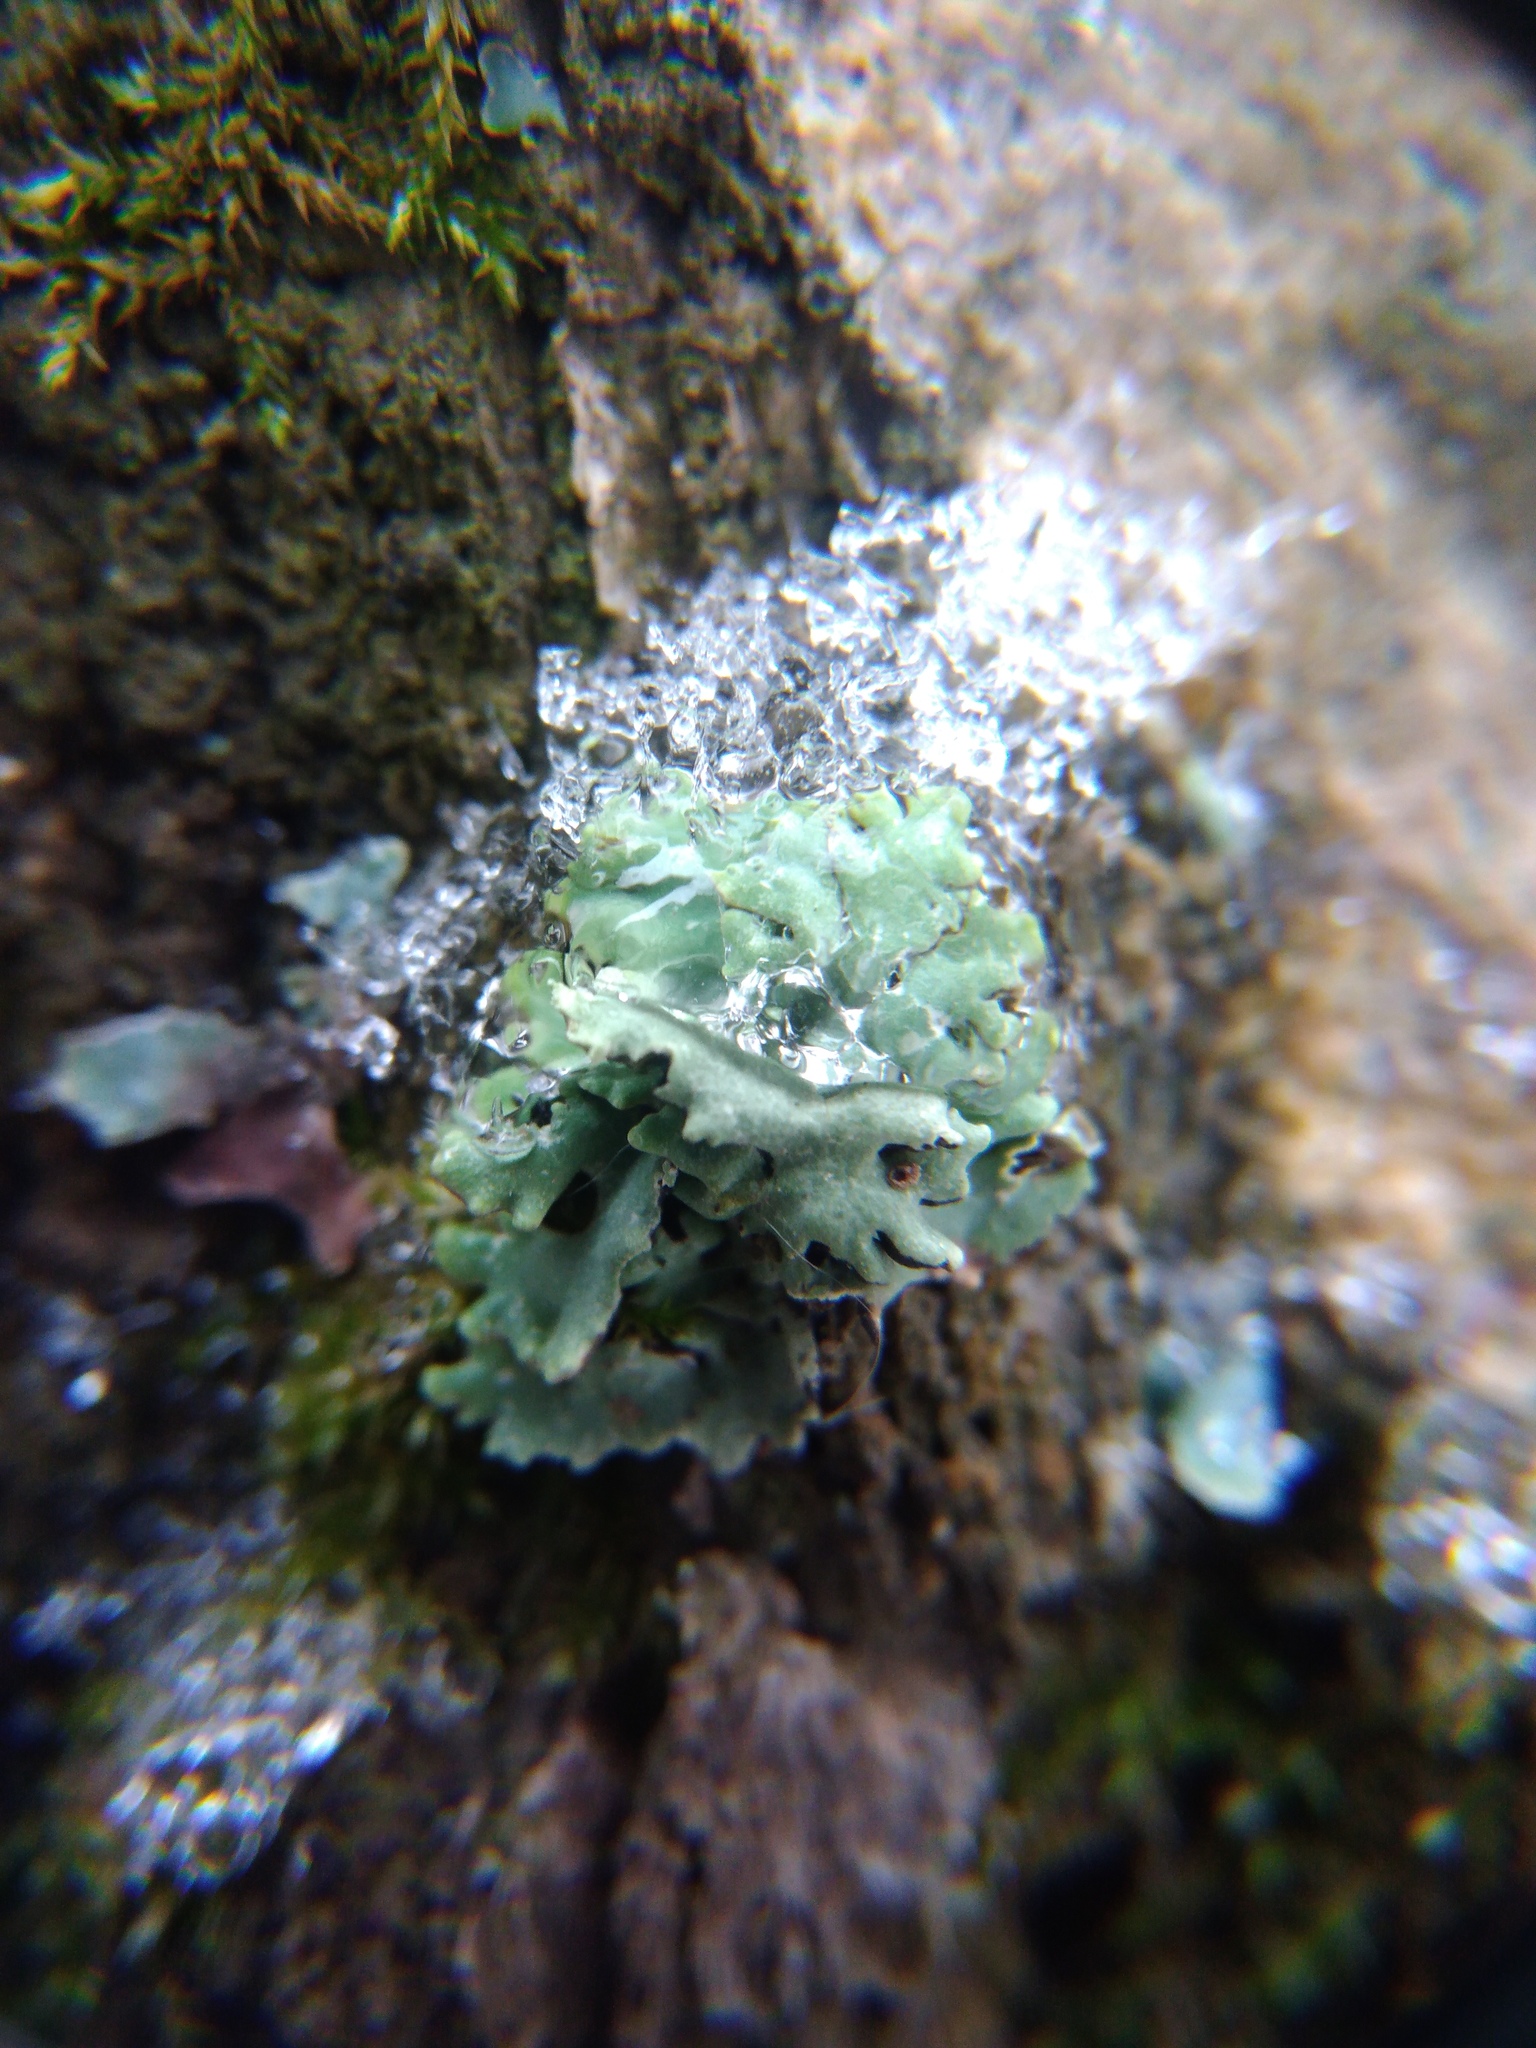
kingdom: Fungi
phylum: Ascomycota
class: Lecanoromycetes
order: Lecanorales
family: Parmeliaceae
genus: Evernia
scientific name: Evernia prunastri
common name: Oak moss
